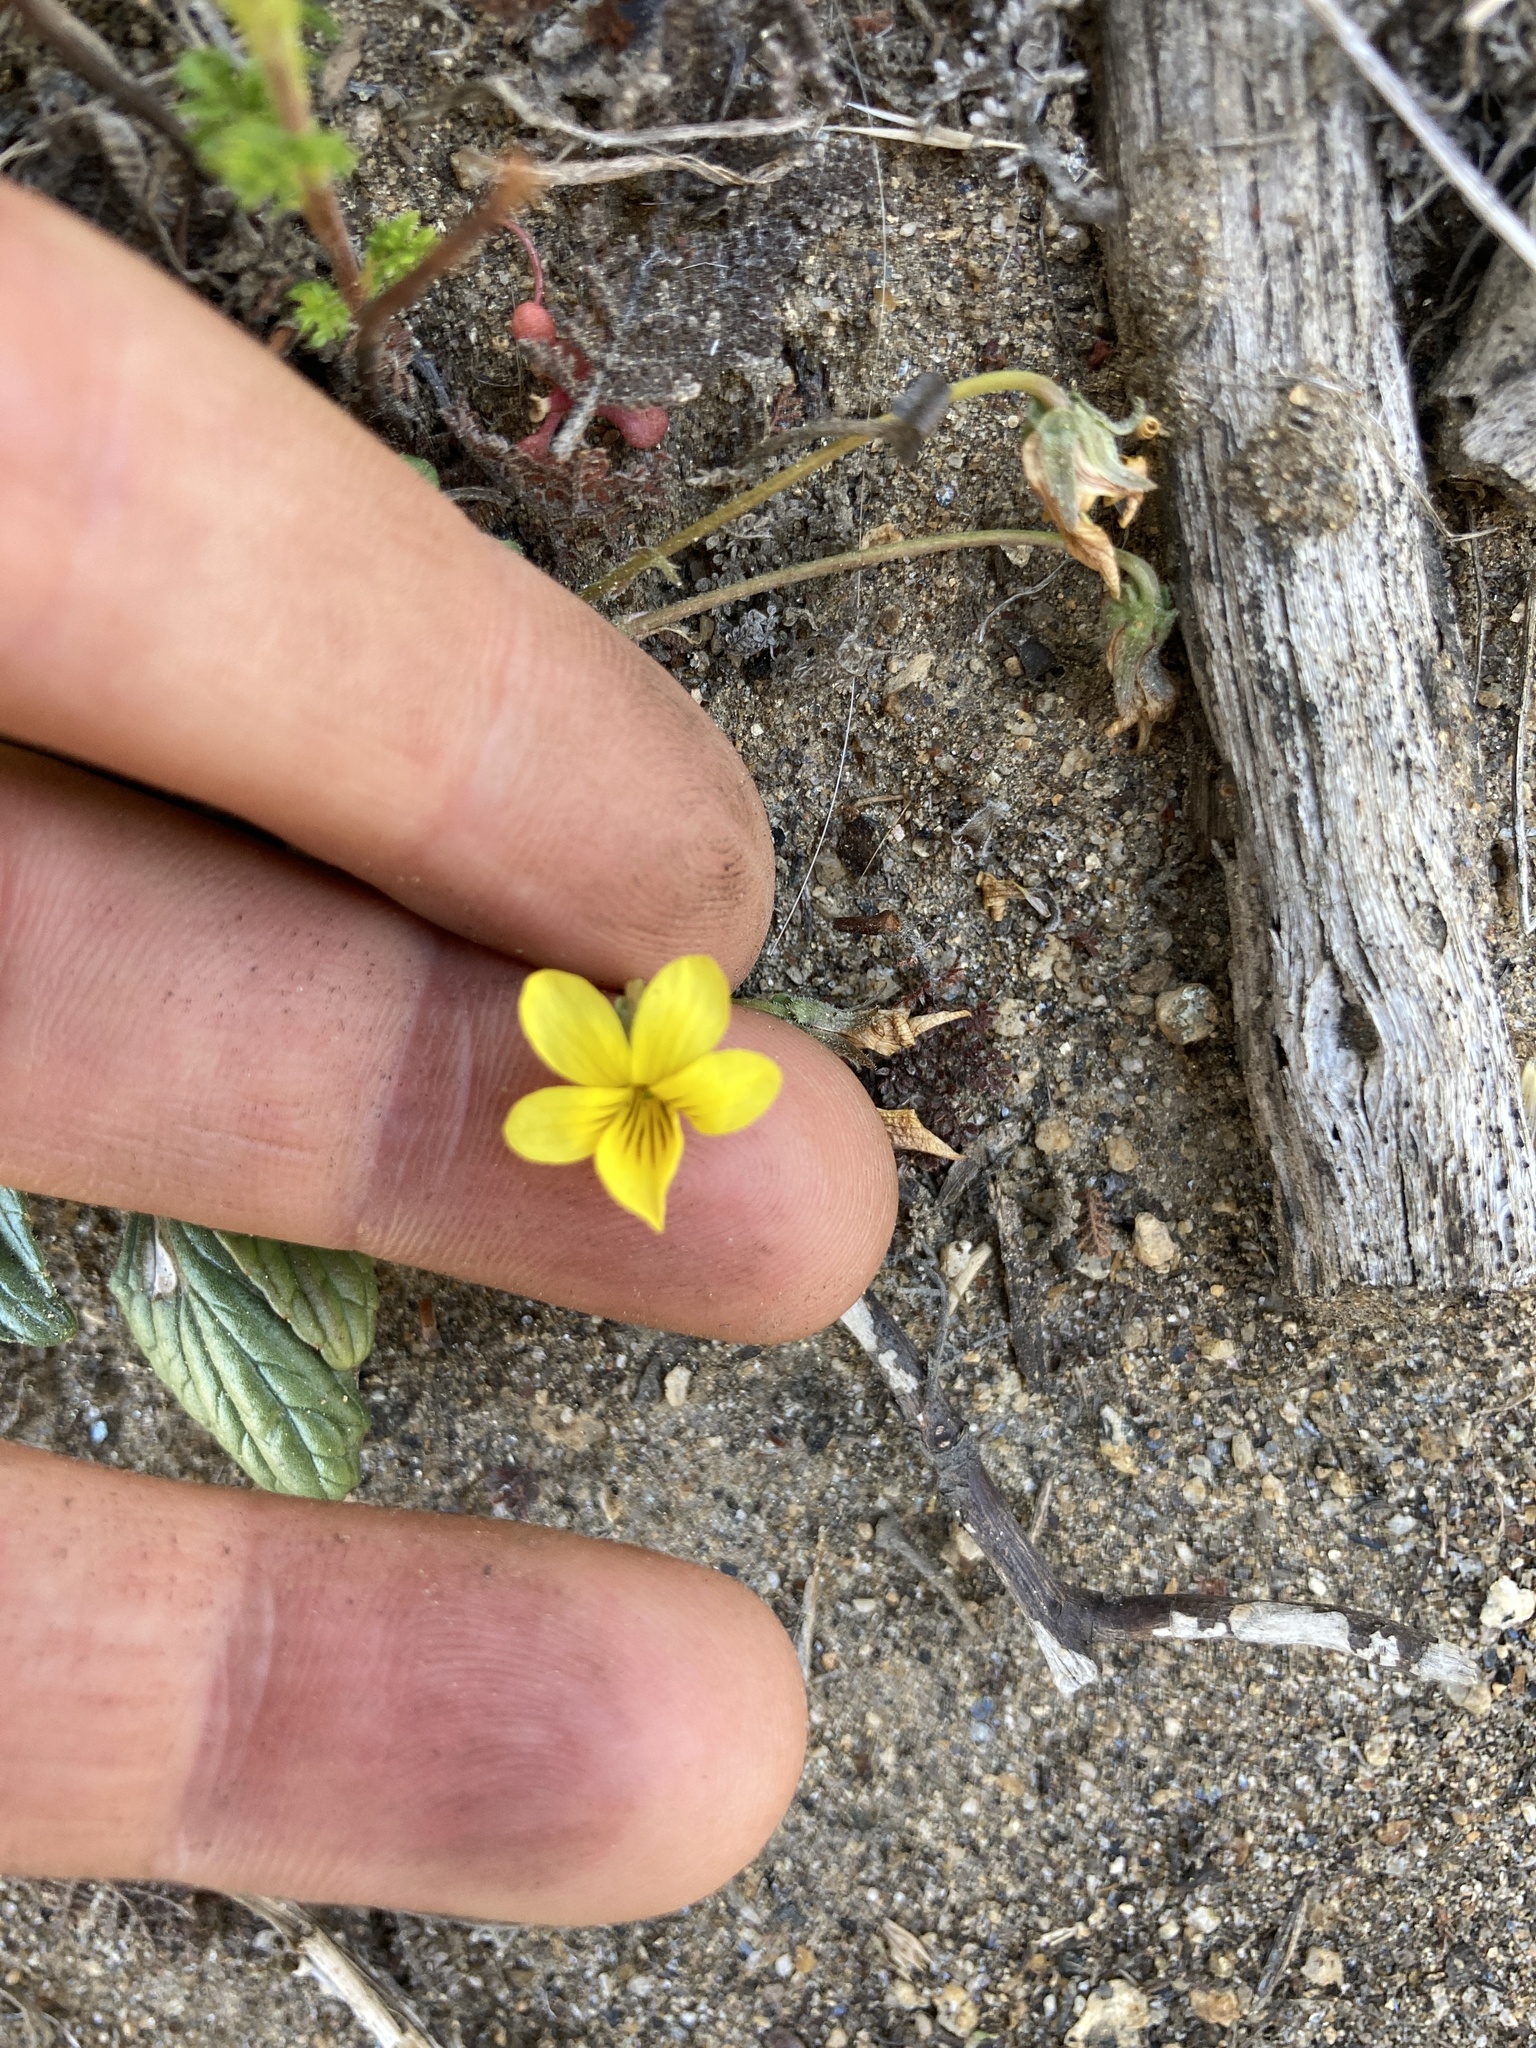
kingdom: Plantae
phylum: Tracheophyta
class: Magnoliopsida
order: Malpighiales
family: Violaceae
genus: Viola
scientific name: Viola purpurea
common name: Pine violet
